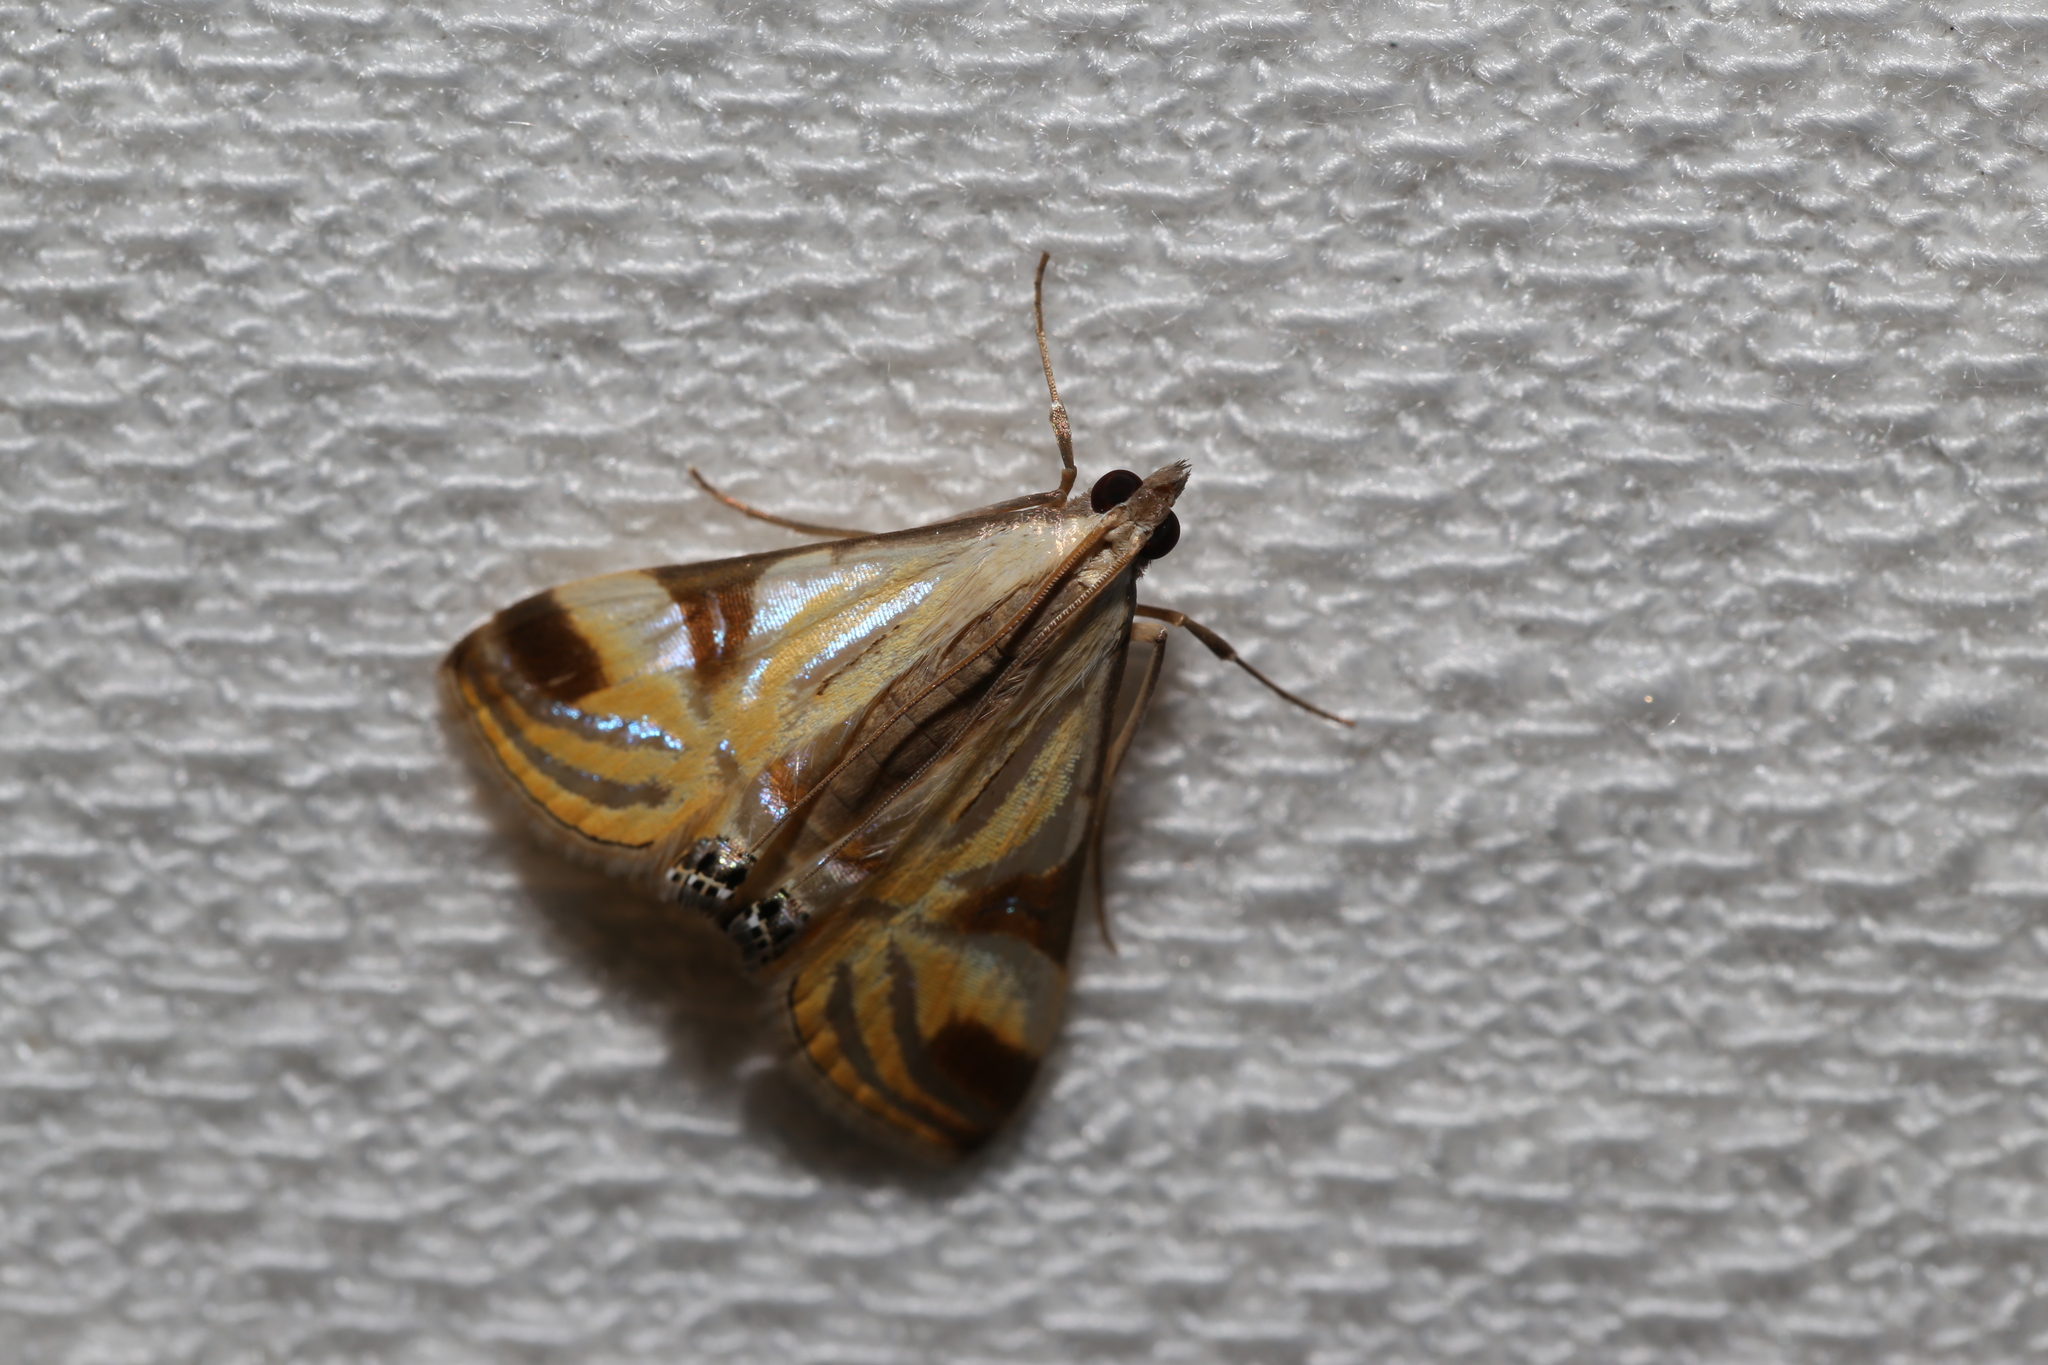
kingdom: Animalia
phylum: Arthropoda
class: Insecta
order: Lepidoptera
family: Crambidae
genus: Talanga
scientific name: Talanga tolumnialis
